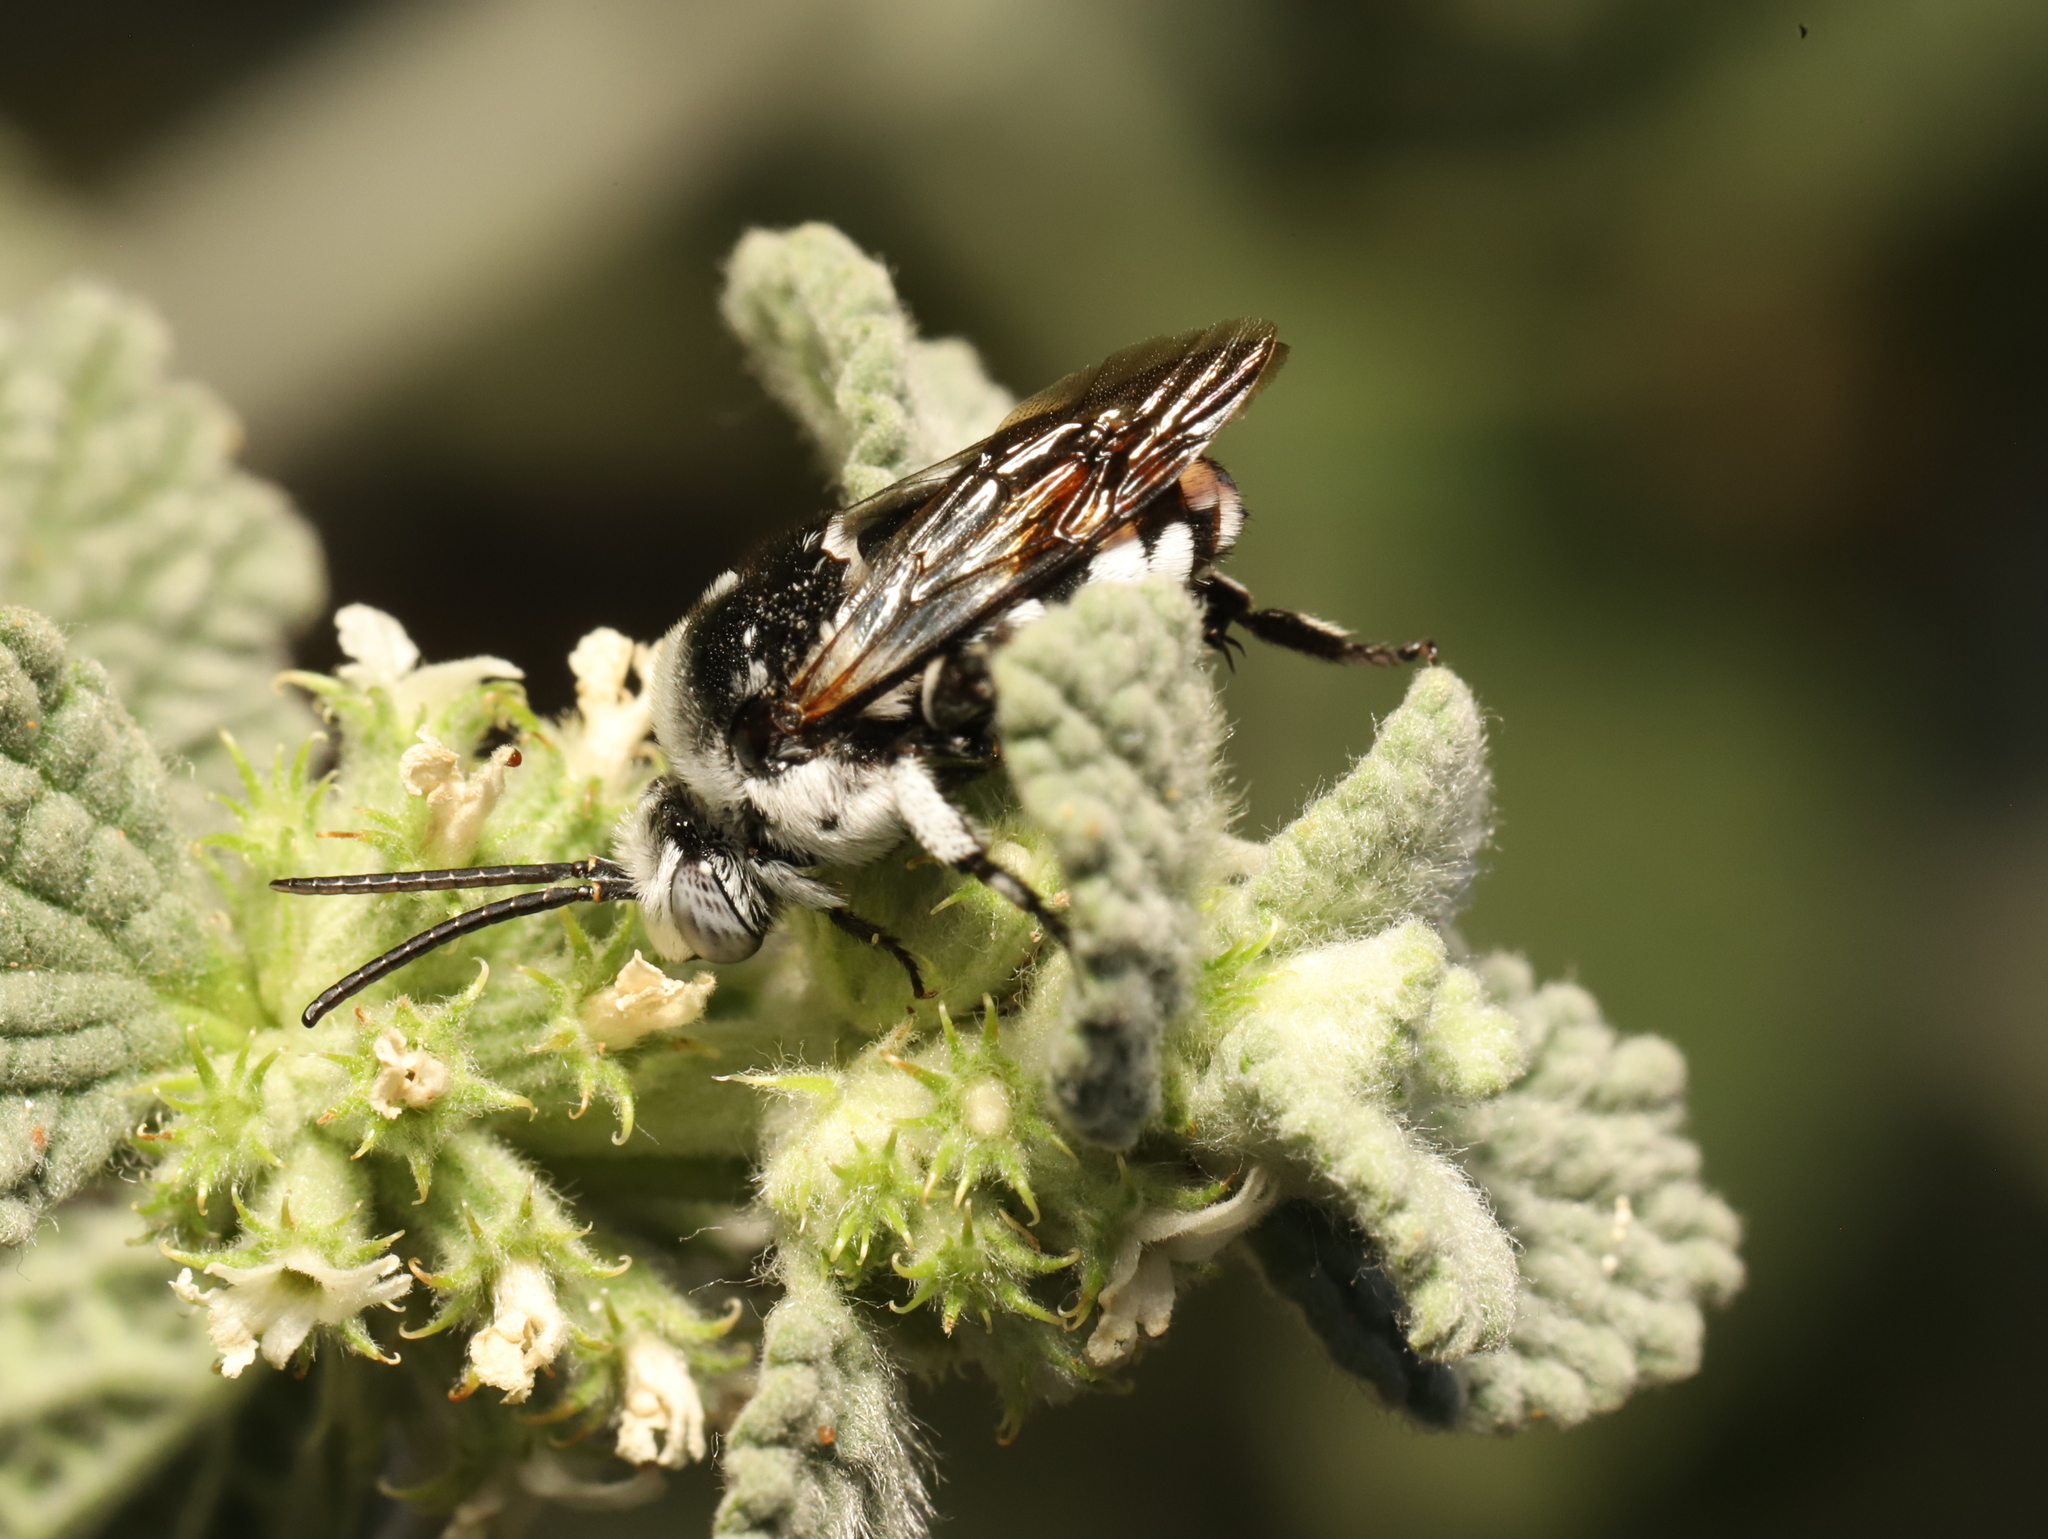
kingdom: Animalia
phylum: Arthropoda
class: Insecta
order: Hymenoptera
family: Apidae
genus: Thyreus
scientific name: Thyreus waroonensis
